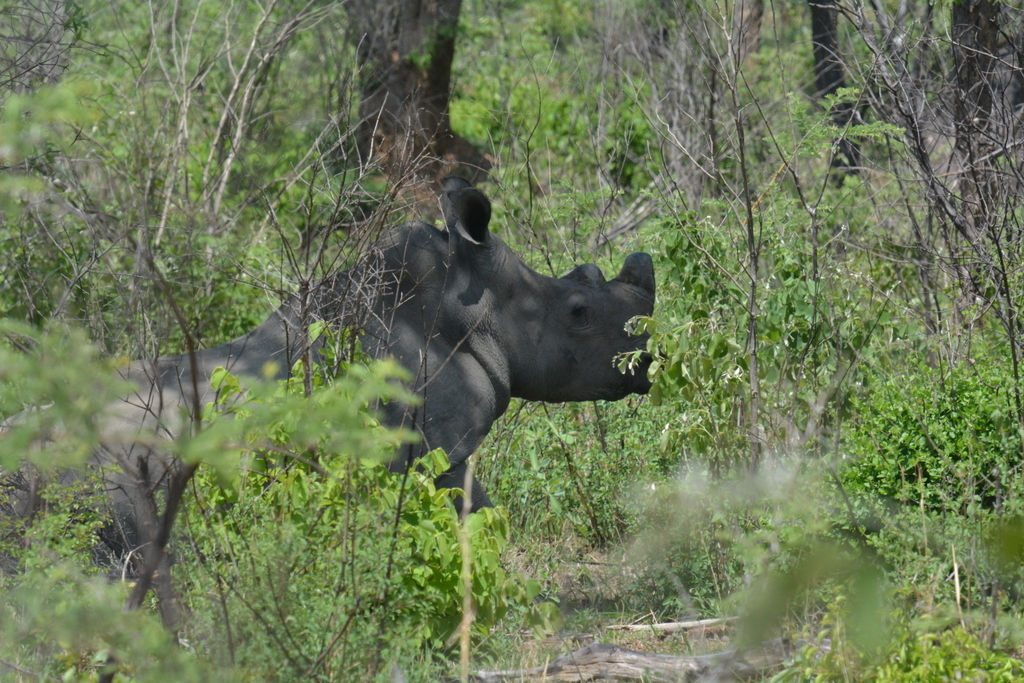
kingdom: Animalia
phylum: Chordata
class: Mammalia
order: Perissodactyla
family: Rhinocerotidae
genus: Ceratotherium
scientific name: Ceratotherium simum
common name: White rhinoceros
